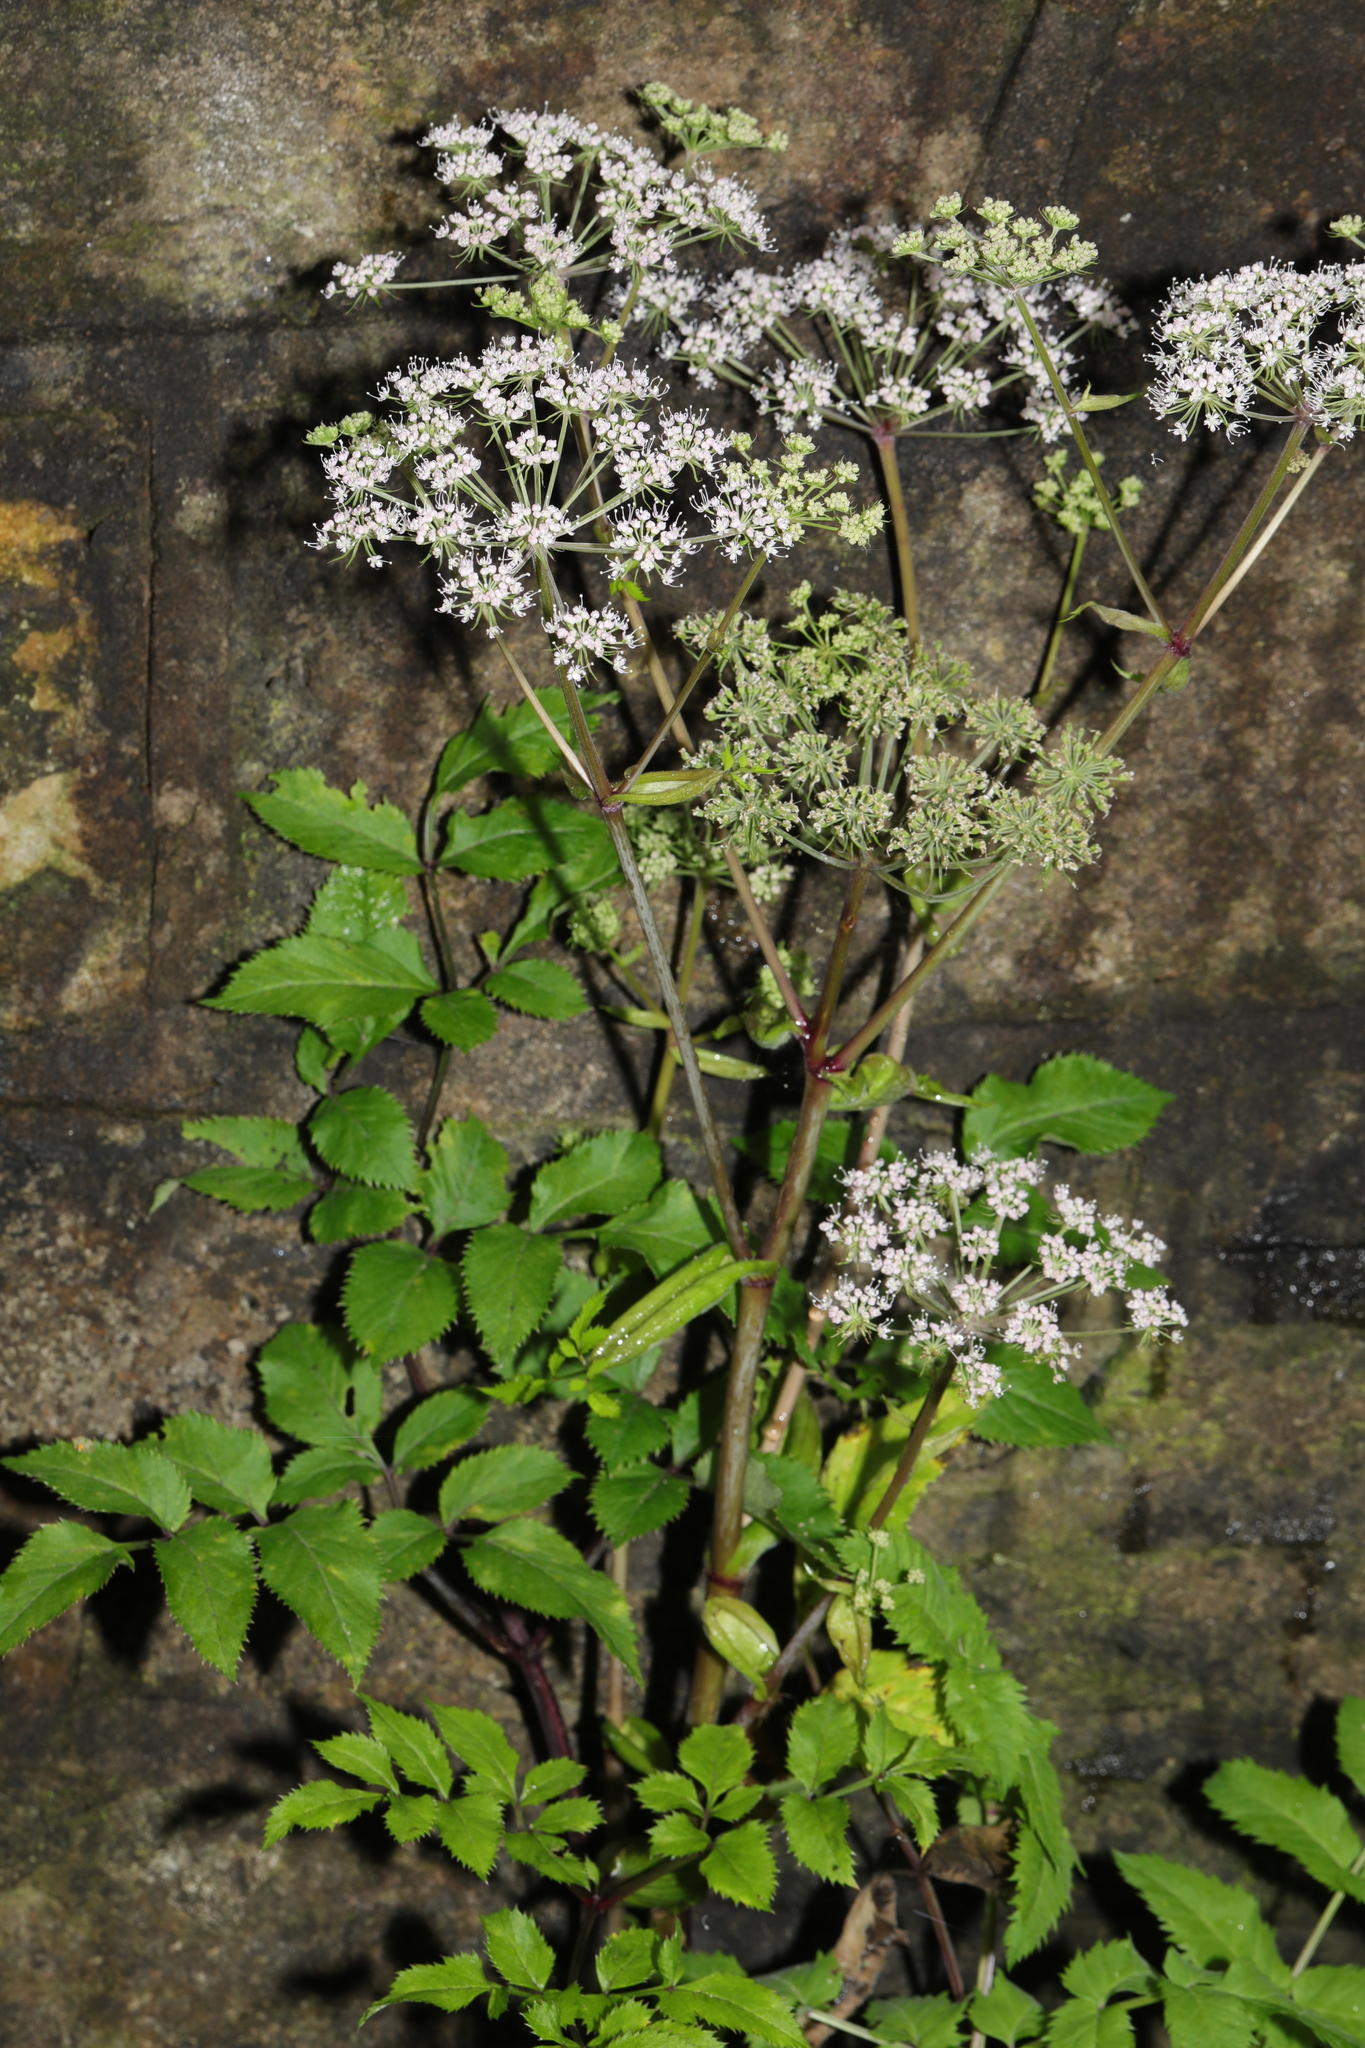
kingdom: Plantae
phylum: Tracheophyta
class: Magnoliopsida
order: Apiales
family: Apiaceae
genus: Angelica
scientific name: Angelica sylvestris
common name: Wild angelica
